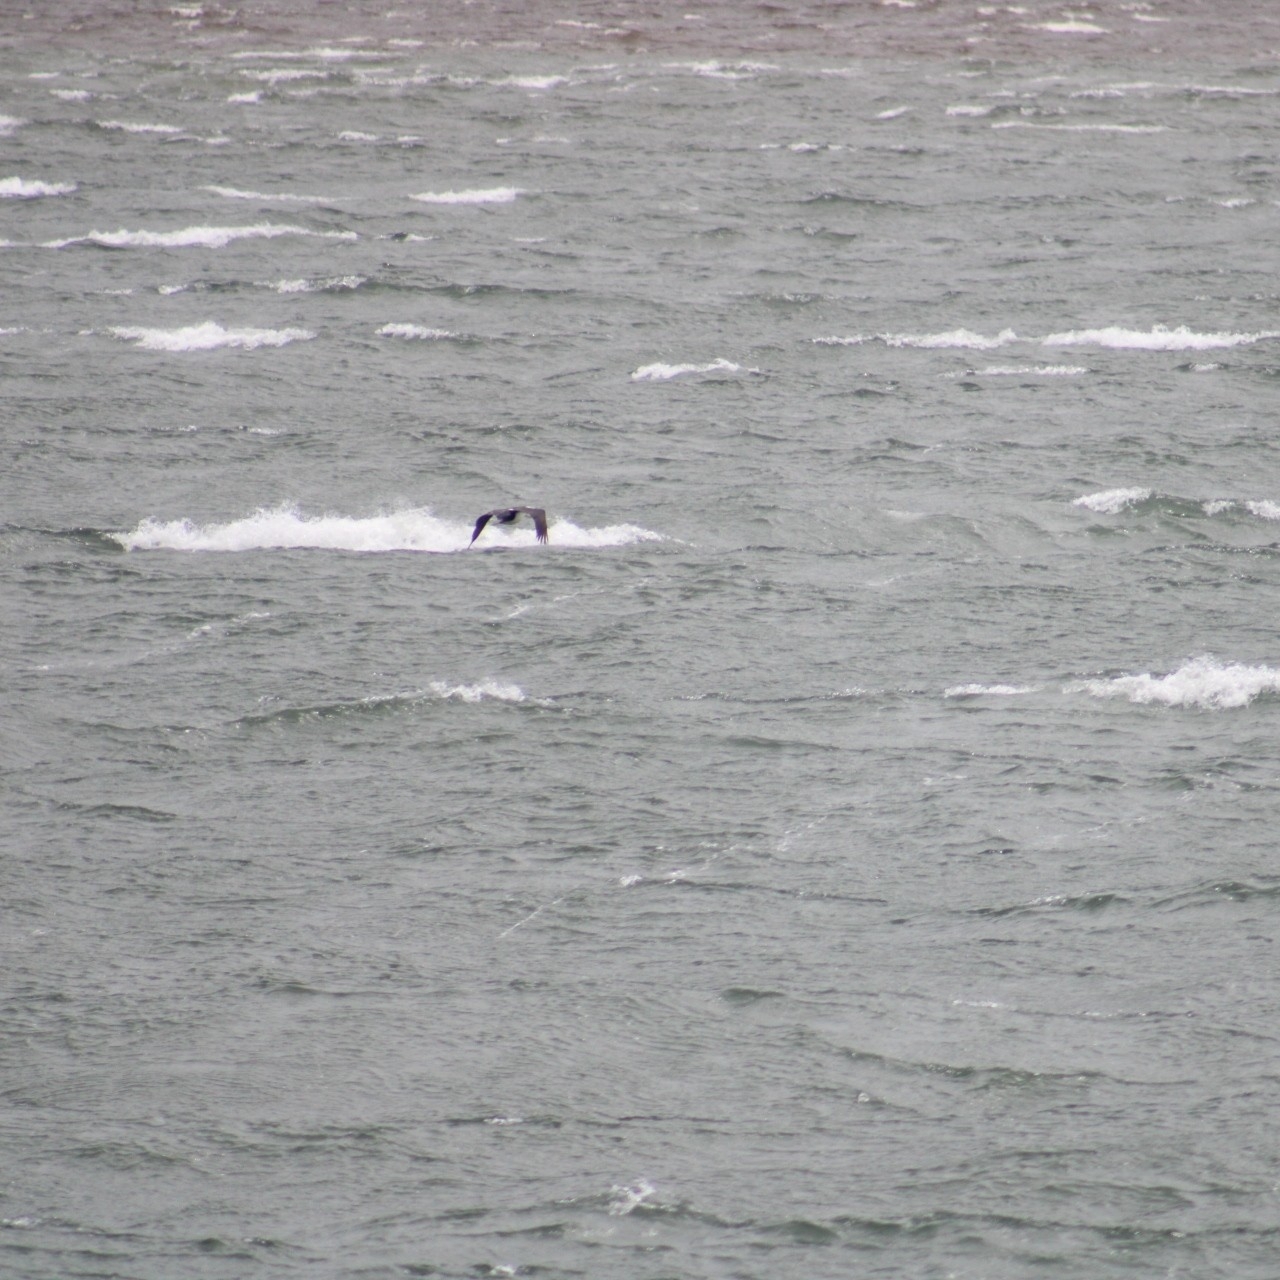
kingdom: Animalia
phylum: Chordata
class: Aves
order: Suliformes
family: Phalacrocoracidae
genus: Leucocarbo
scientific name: Leucocarbo atriceps
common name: Imperial shag
